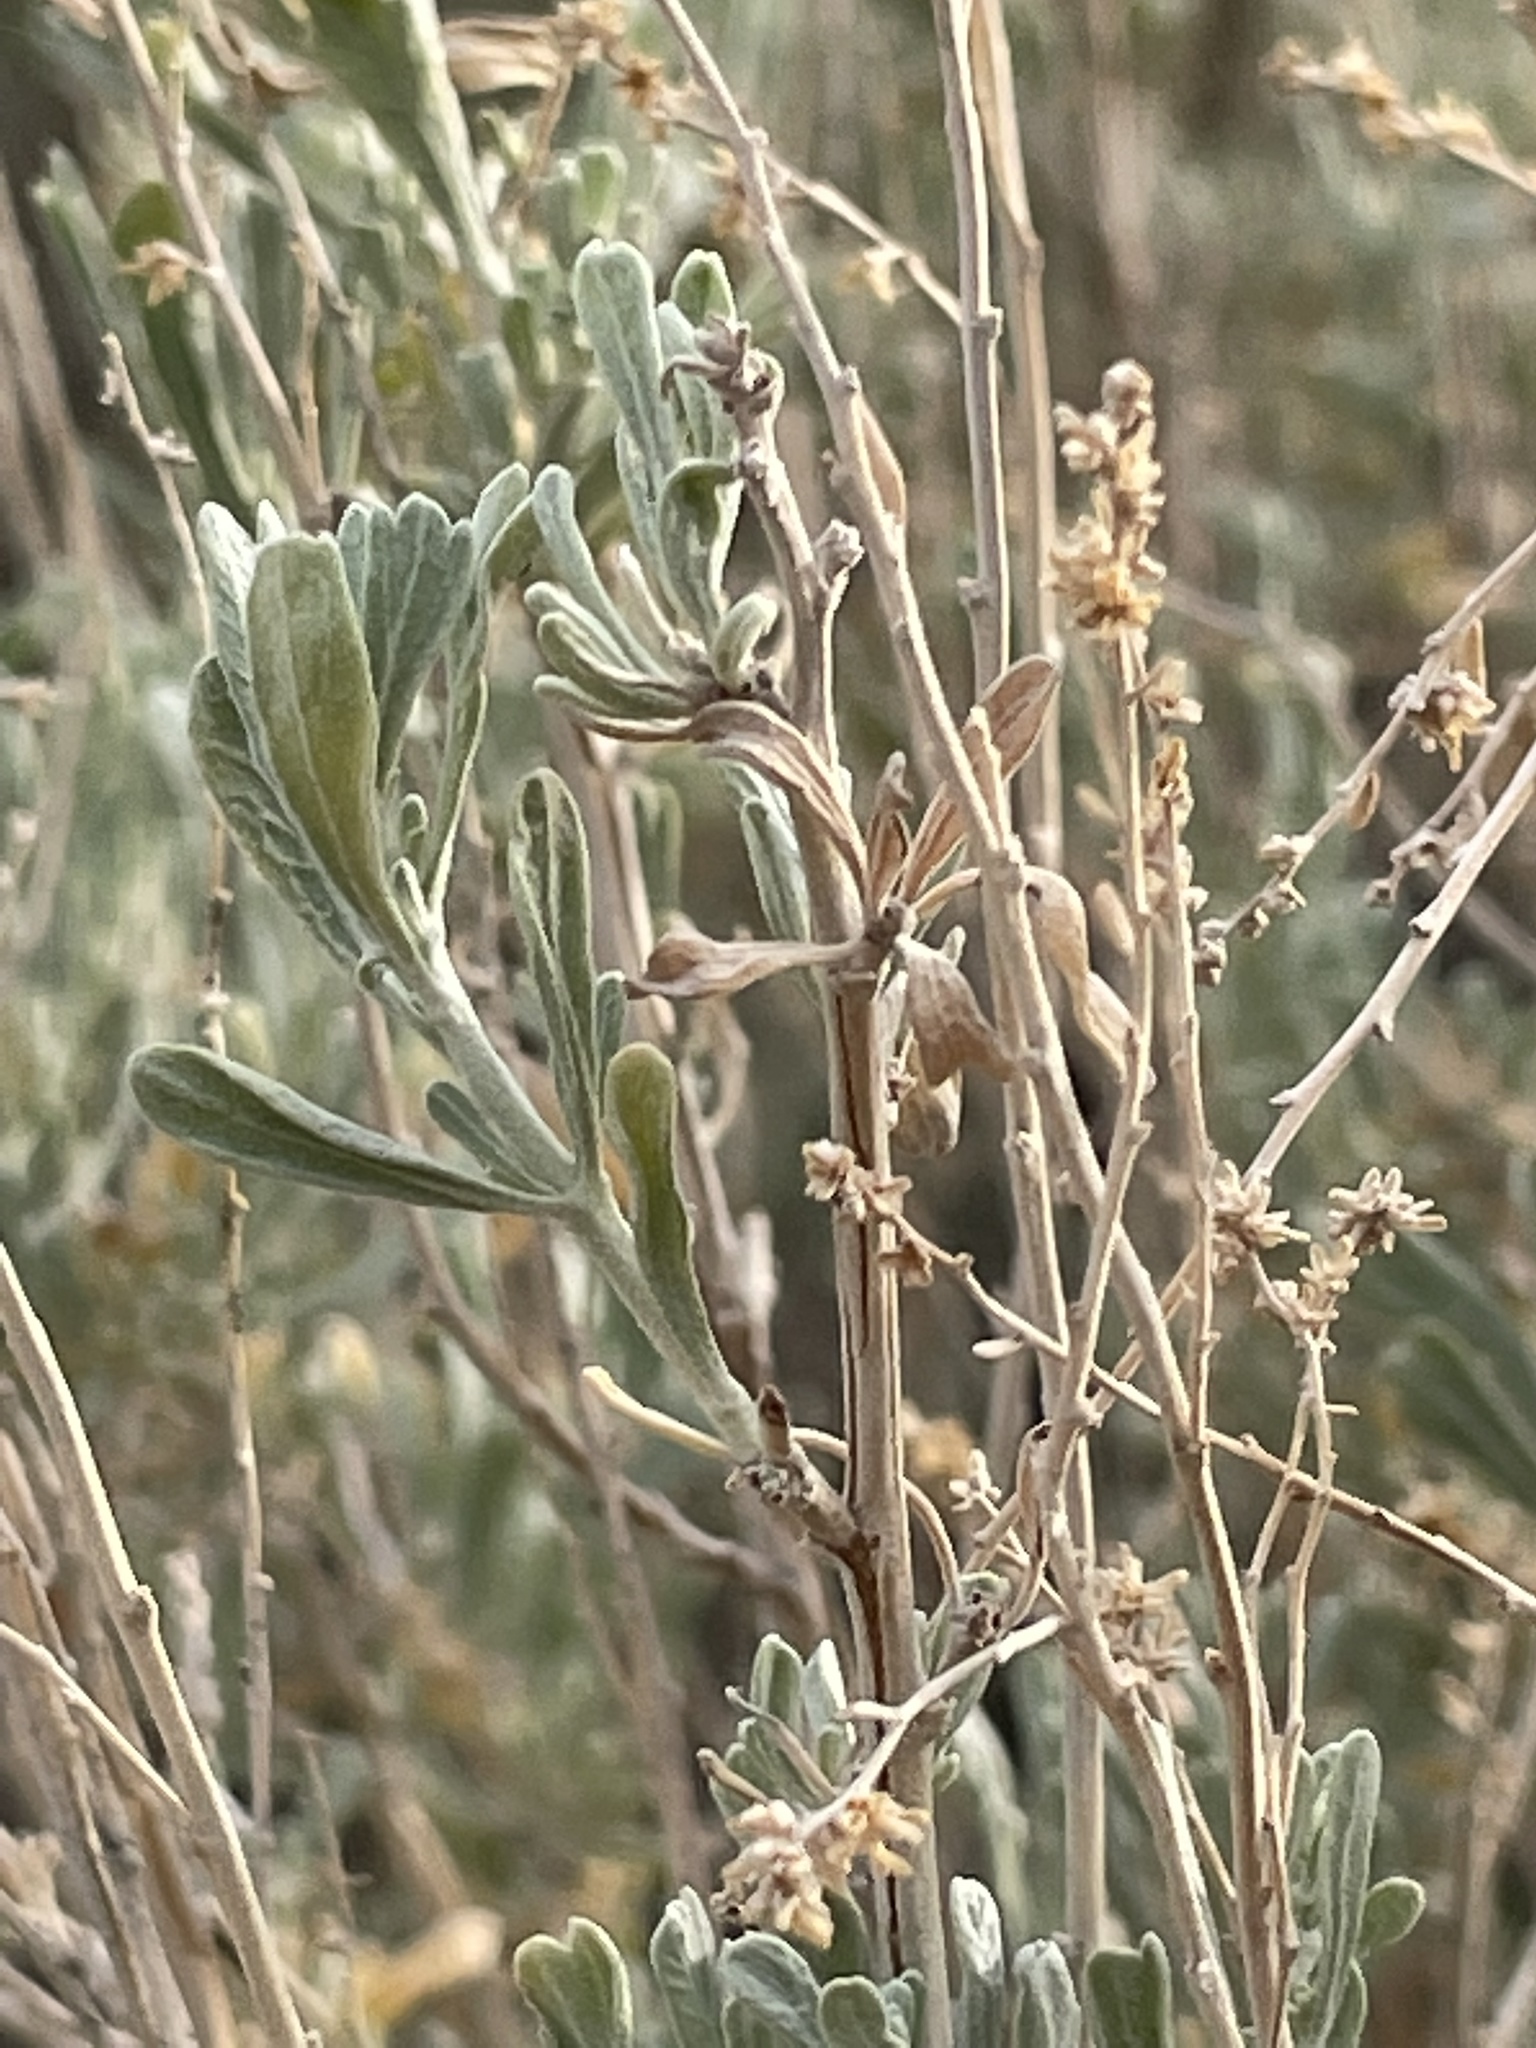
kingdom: Plantae
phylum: Tracheophyta
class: Magnoliopsida
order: Asterales
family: Asteraceae
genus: Artemisia
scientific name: Artemisia tridentata
